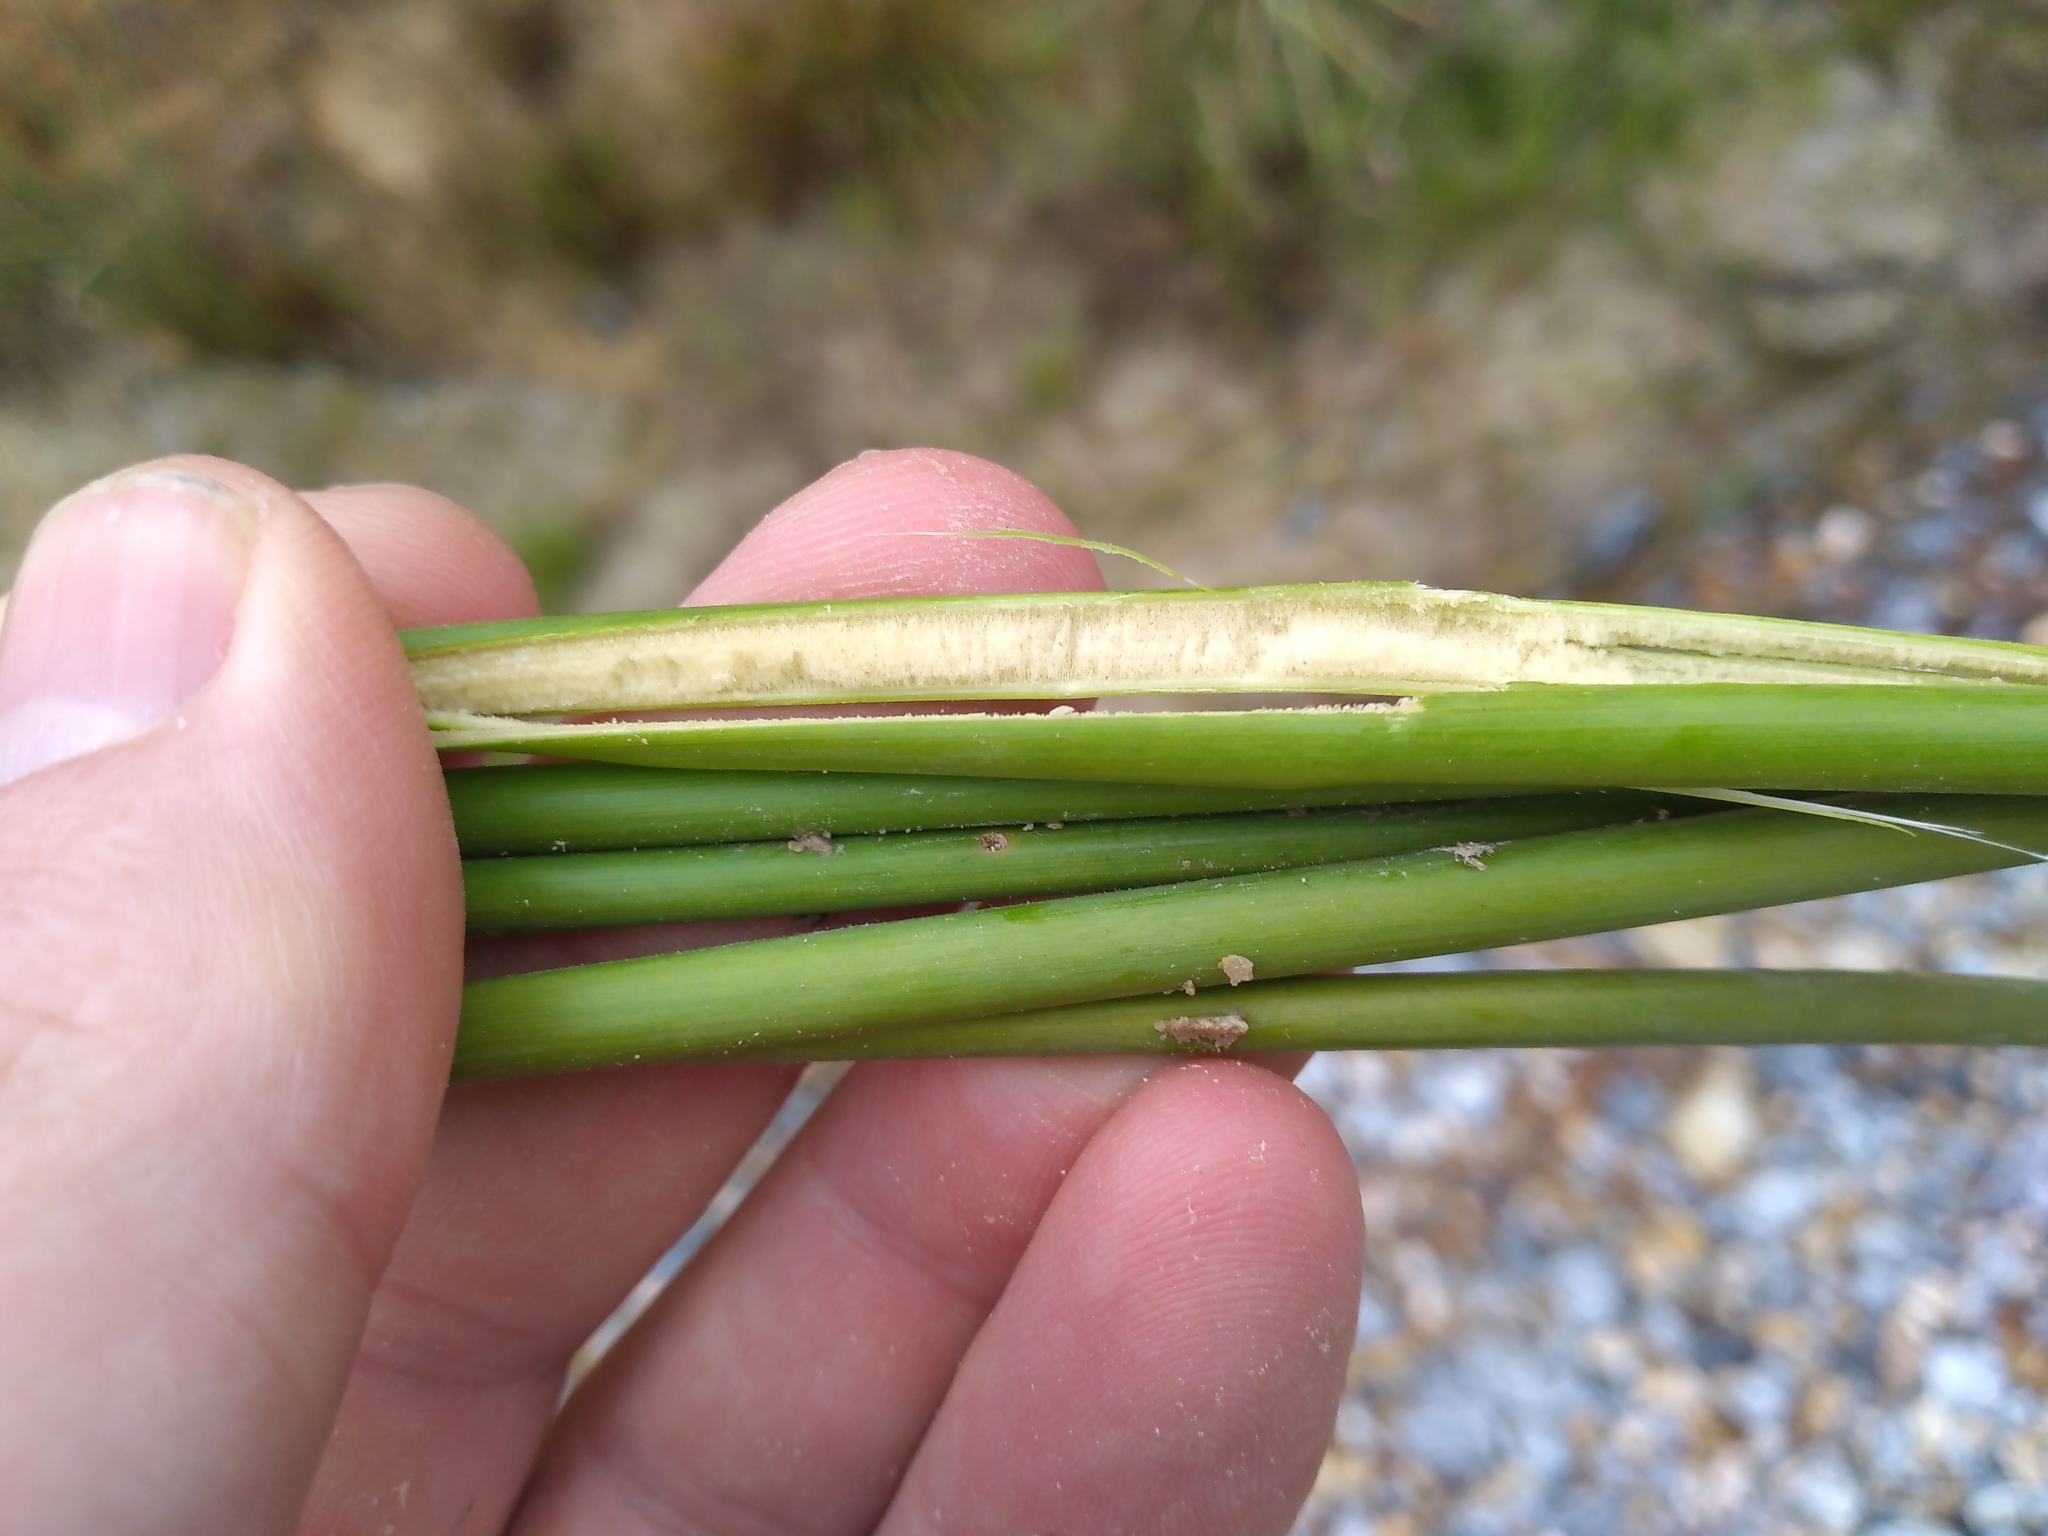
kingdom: Plantae
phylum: Tracheophyta
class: Liliopsida
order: Poales
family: Juncaceae
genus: Juncus
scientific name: Juncus pallidus
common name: Great soft-rush
